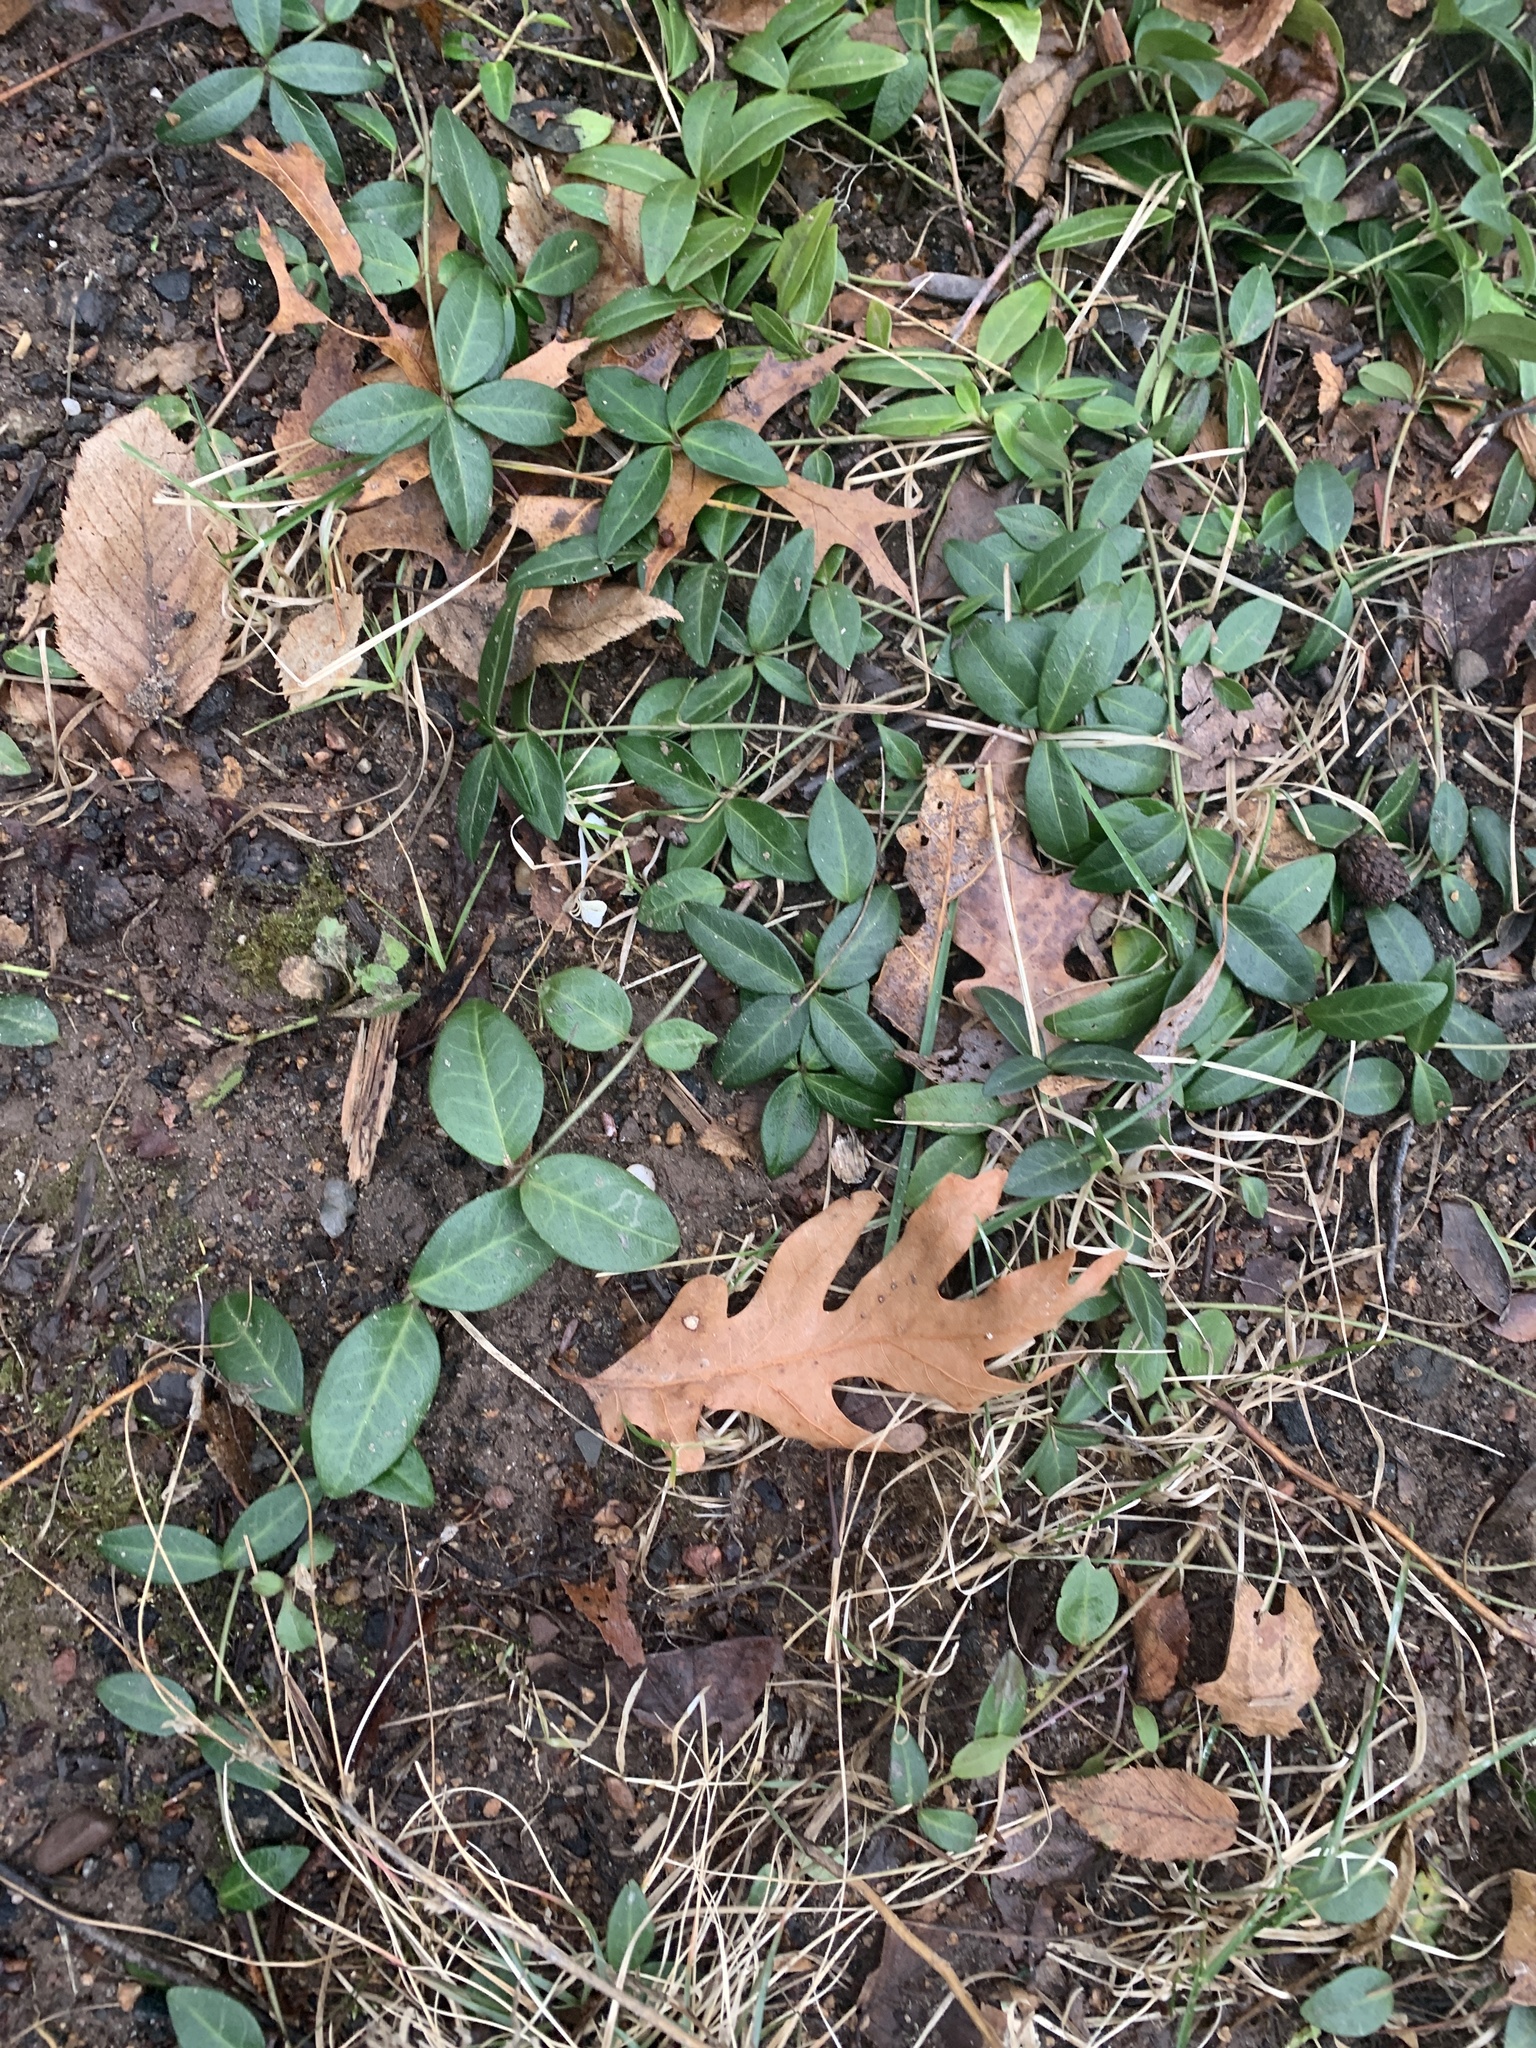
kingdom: Plantae
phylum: Tracheophyta
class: Magnoliopsida
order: Gentianales
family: Apocynaceae
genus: Vinca
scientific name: Vinca minor
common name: Lesser periwinkle
